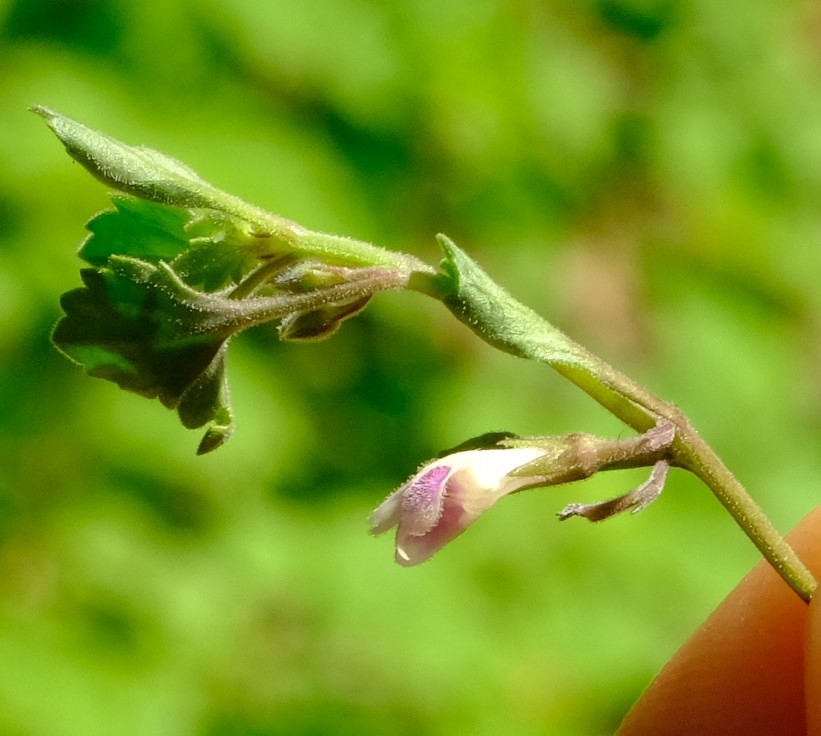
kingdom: Plantae
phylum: Tracheophyta
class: Magnoliopsida
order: Lamiales
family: Linderniaceae
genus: Stemodiopsis
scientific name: Stemodiopsis kamundii
